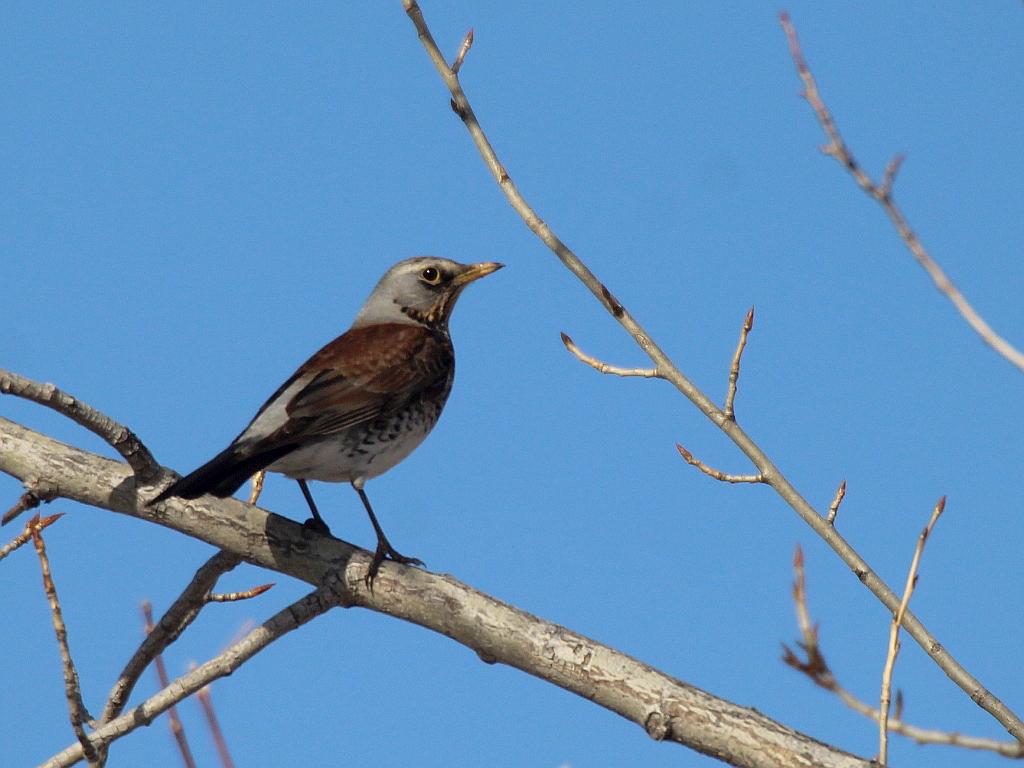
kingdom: Animalia
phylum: Chordata
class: Aves
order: Passeriformes
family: Turdidae
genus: Turdus
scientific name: Turdus pilaris
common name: Fieldfare
